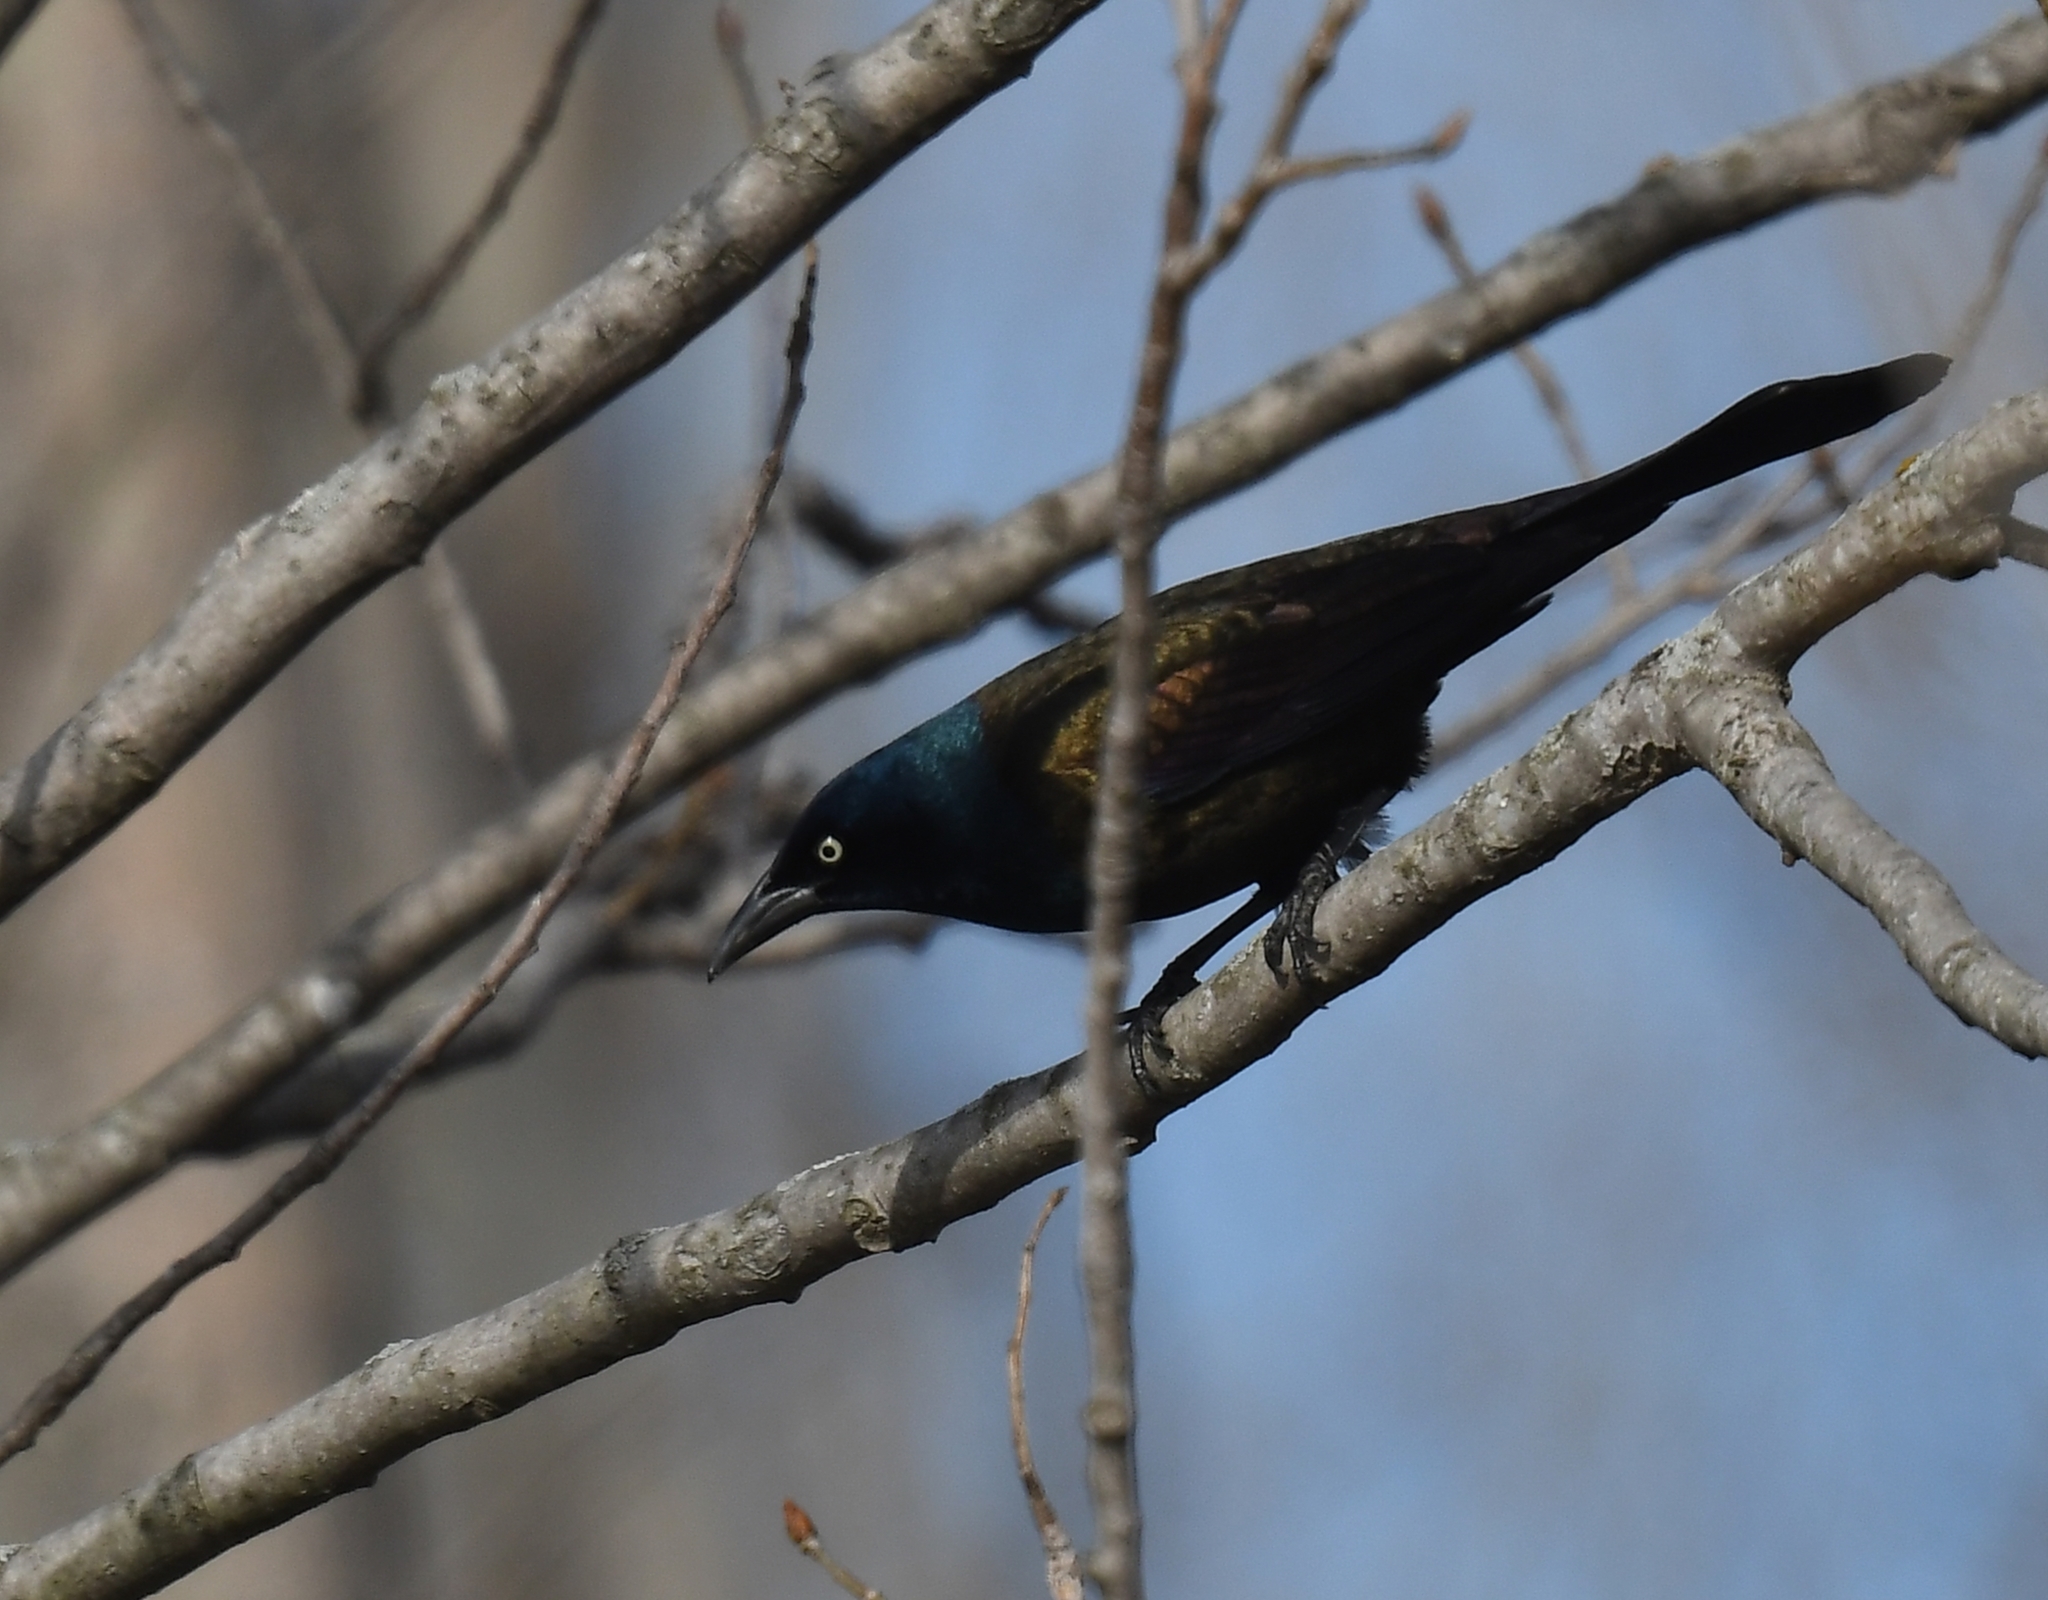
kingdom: Animalia
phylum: Chordata
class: Aves
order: Passeriformes
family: Icteridae
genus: Quiscalus
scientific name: Quiscalus quiscula
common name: Common grackle
